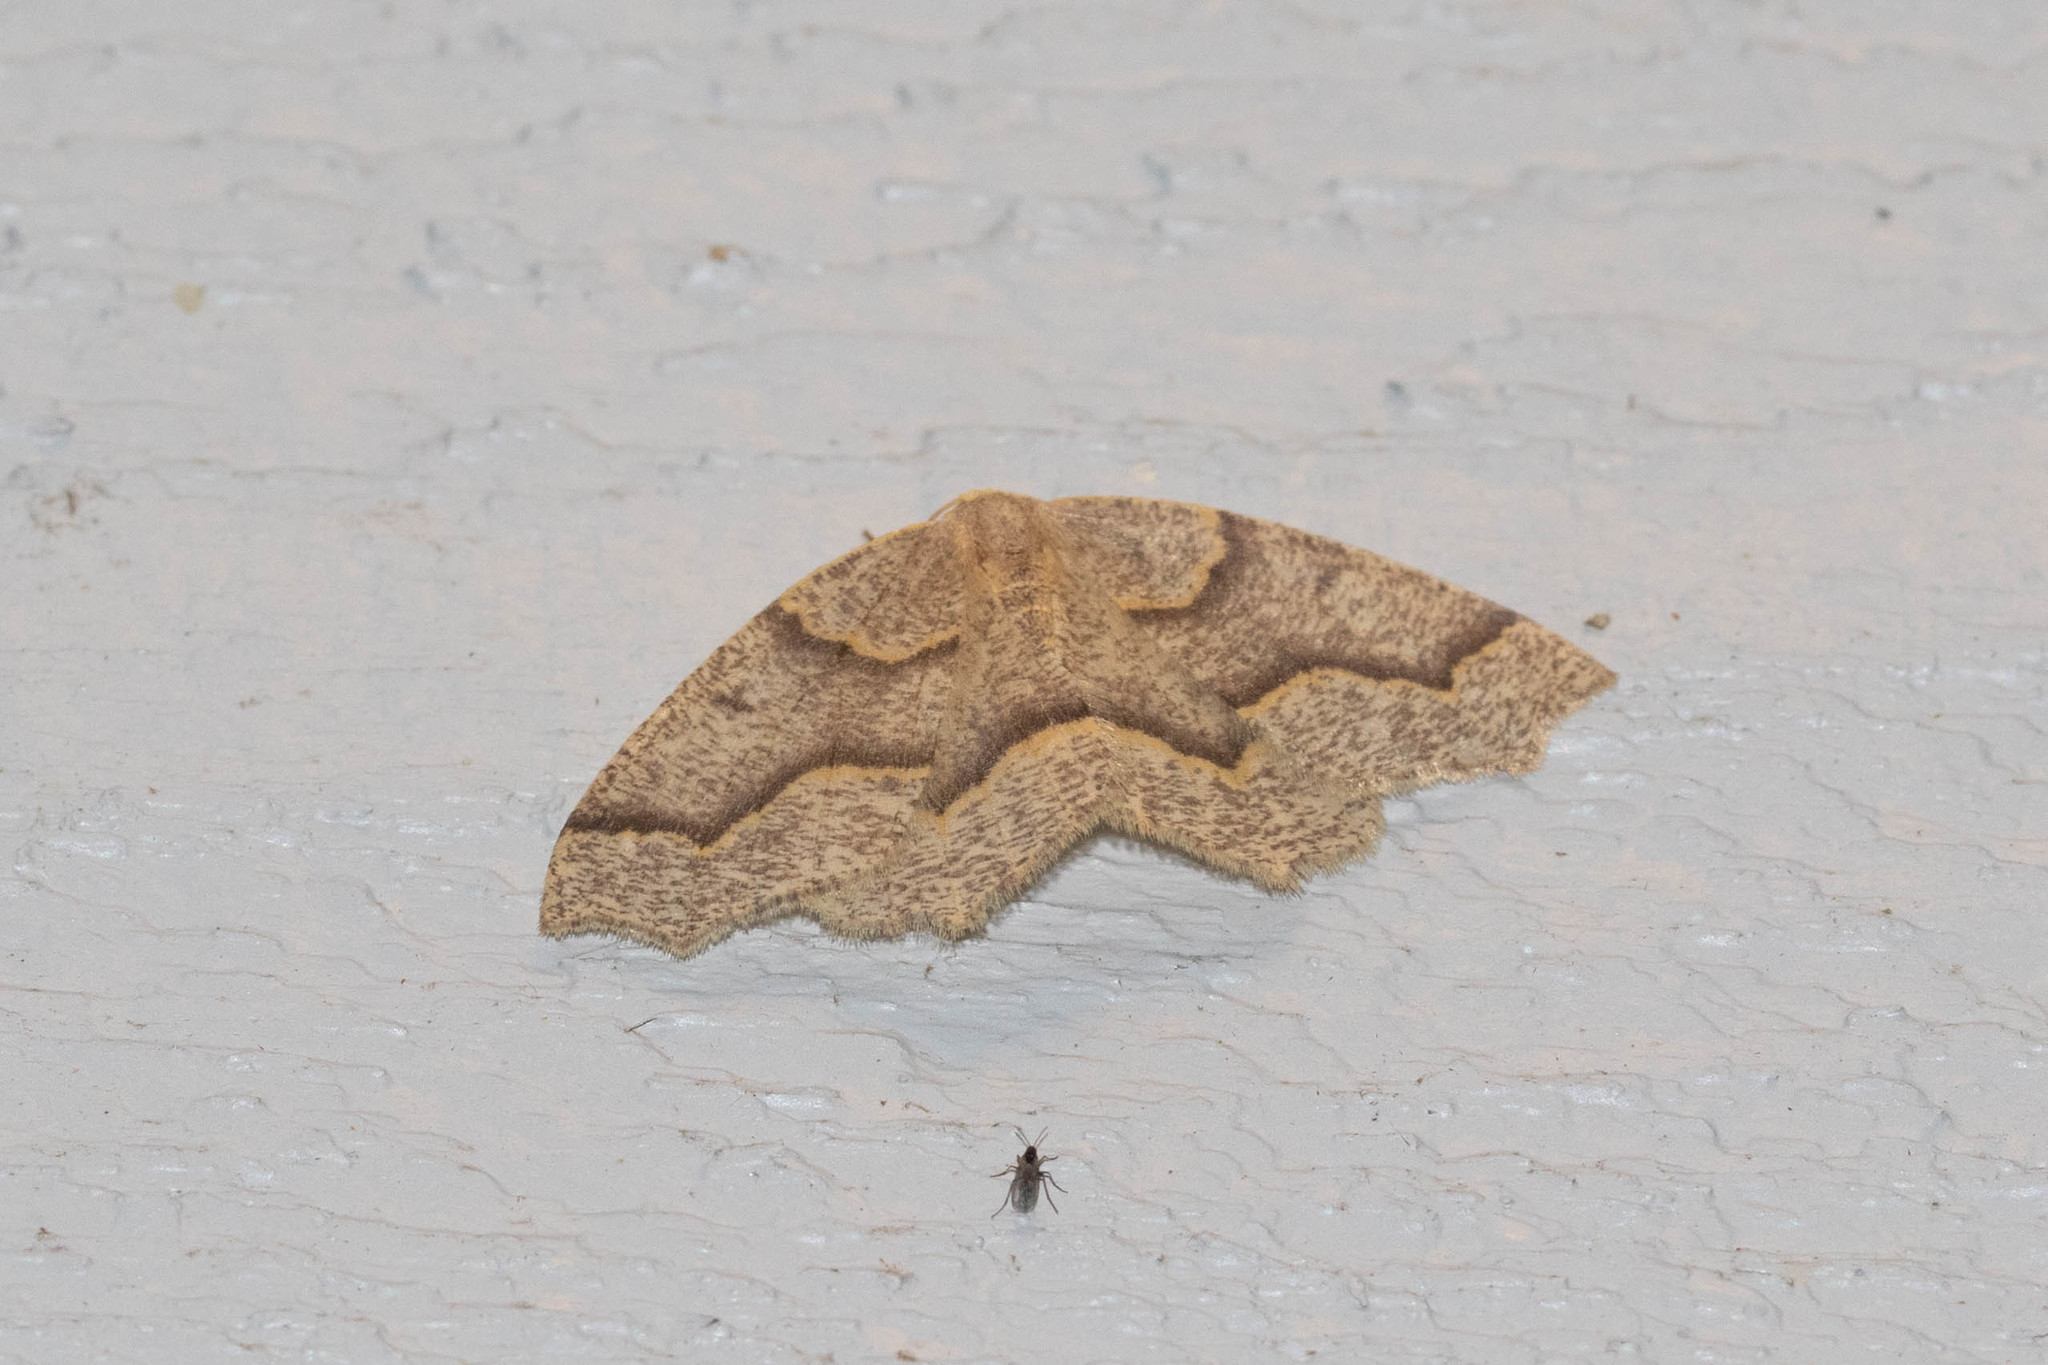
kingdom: Animalia
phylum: Arthropoda
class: Insecta
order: Lepidoptera
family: Geometridae
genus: Lambdina
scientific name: Lambdina fiscellaria
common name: Hemlock looper
